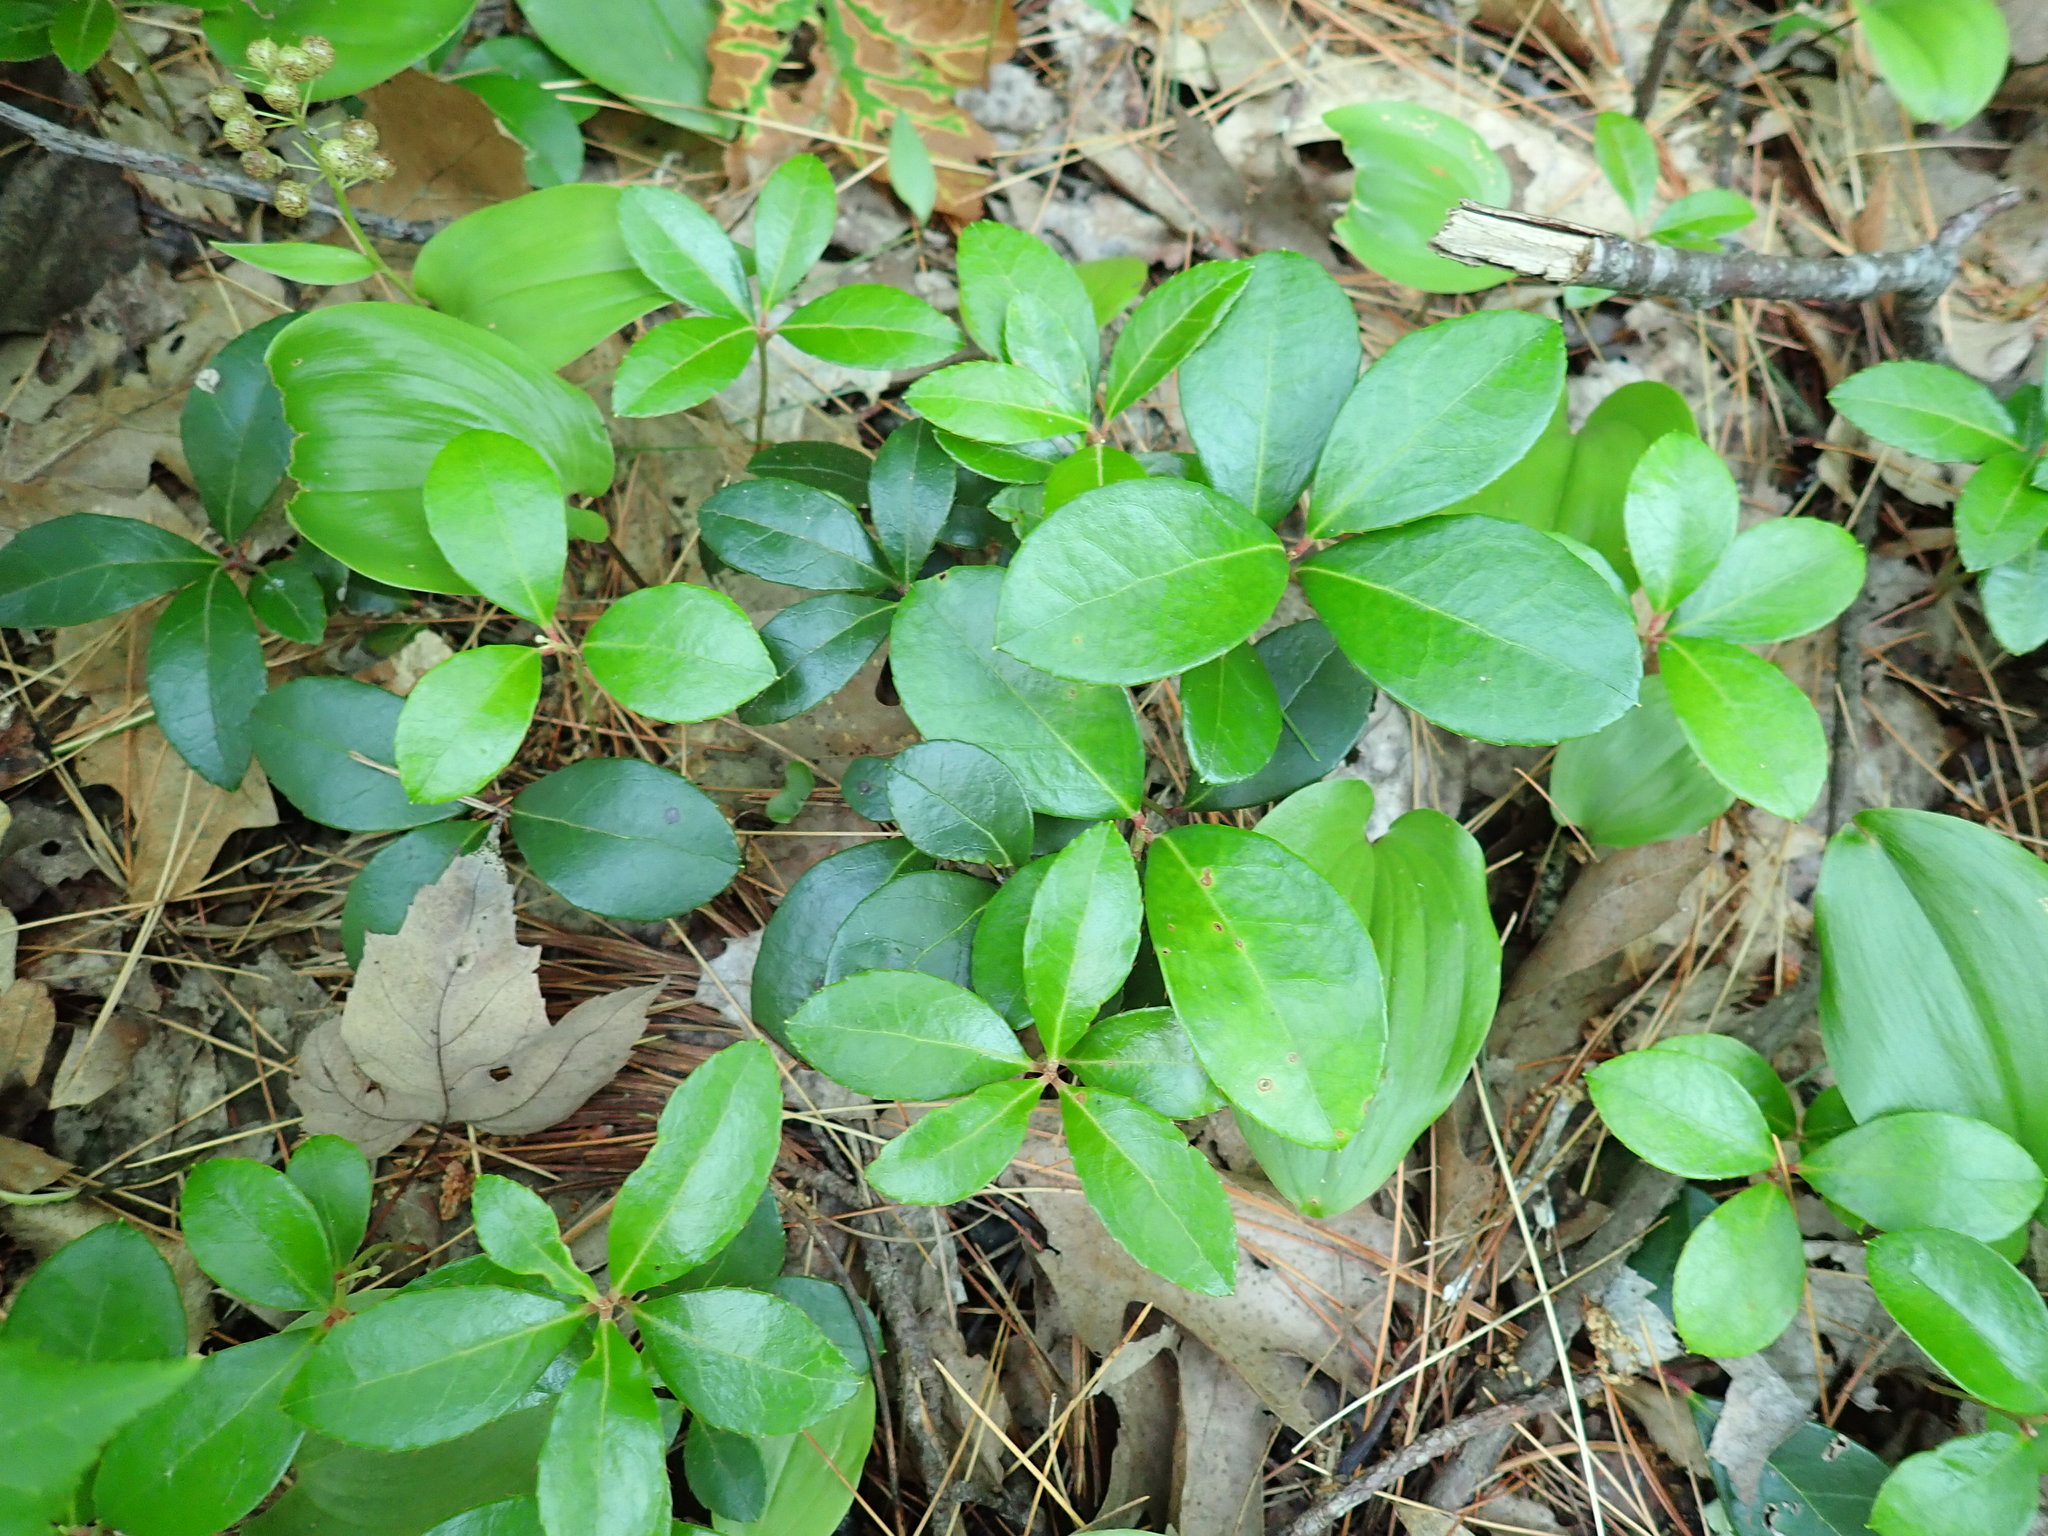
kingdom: Plantae
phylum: Tracheophyta
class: Magnoliopsida
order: Ericales
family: Ericaceae
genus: Gaultheria
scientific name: Gaultheria procumbens
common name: Checkerberry
